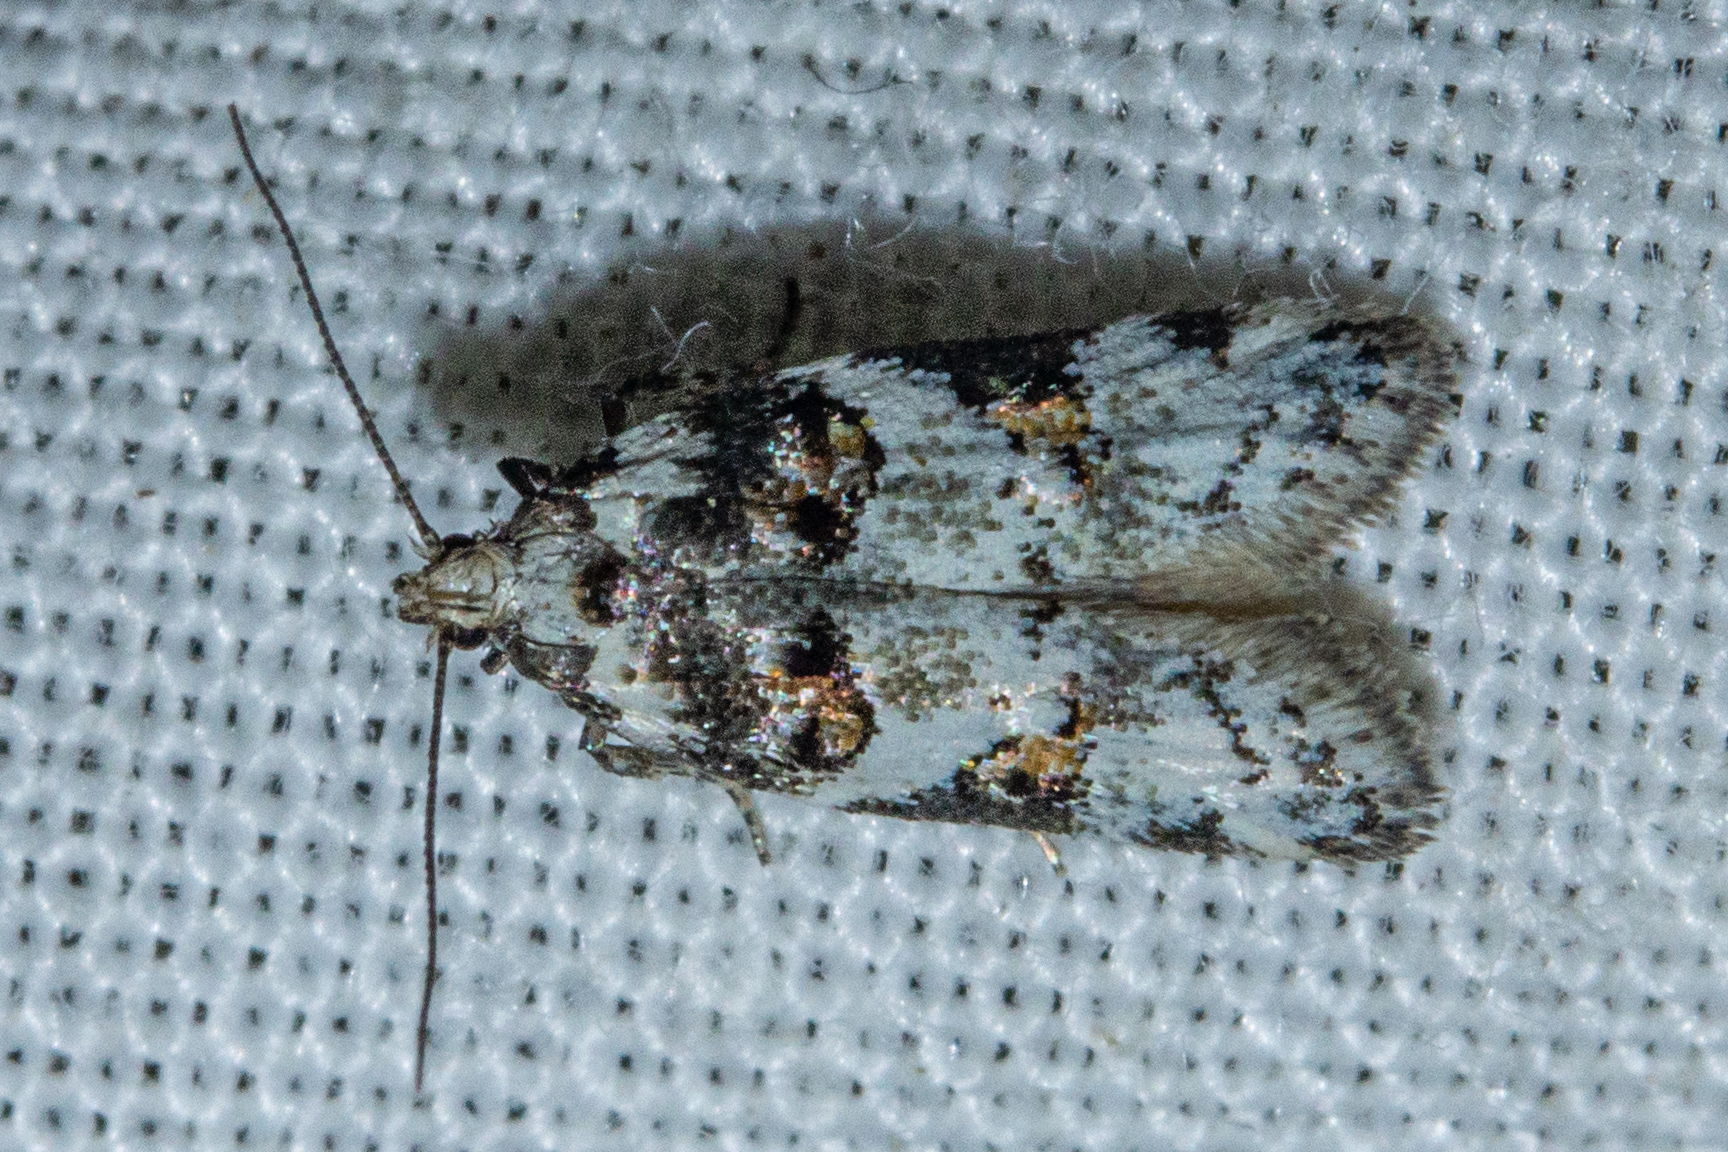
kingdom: Animalia
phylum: Arthropoda
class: Insecta
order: Lepidoptera
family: Oecophoridae
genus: Trachypepla
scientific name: Trachypepla galaxias
